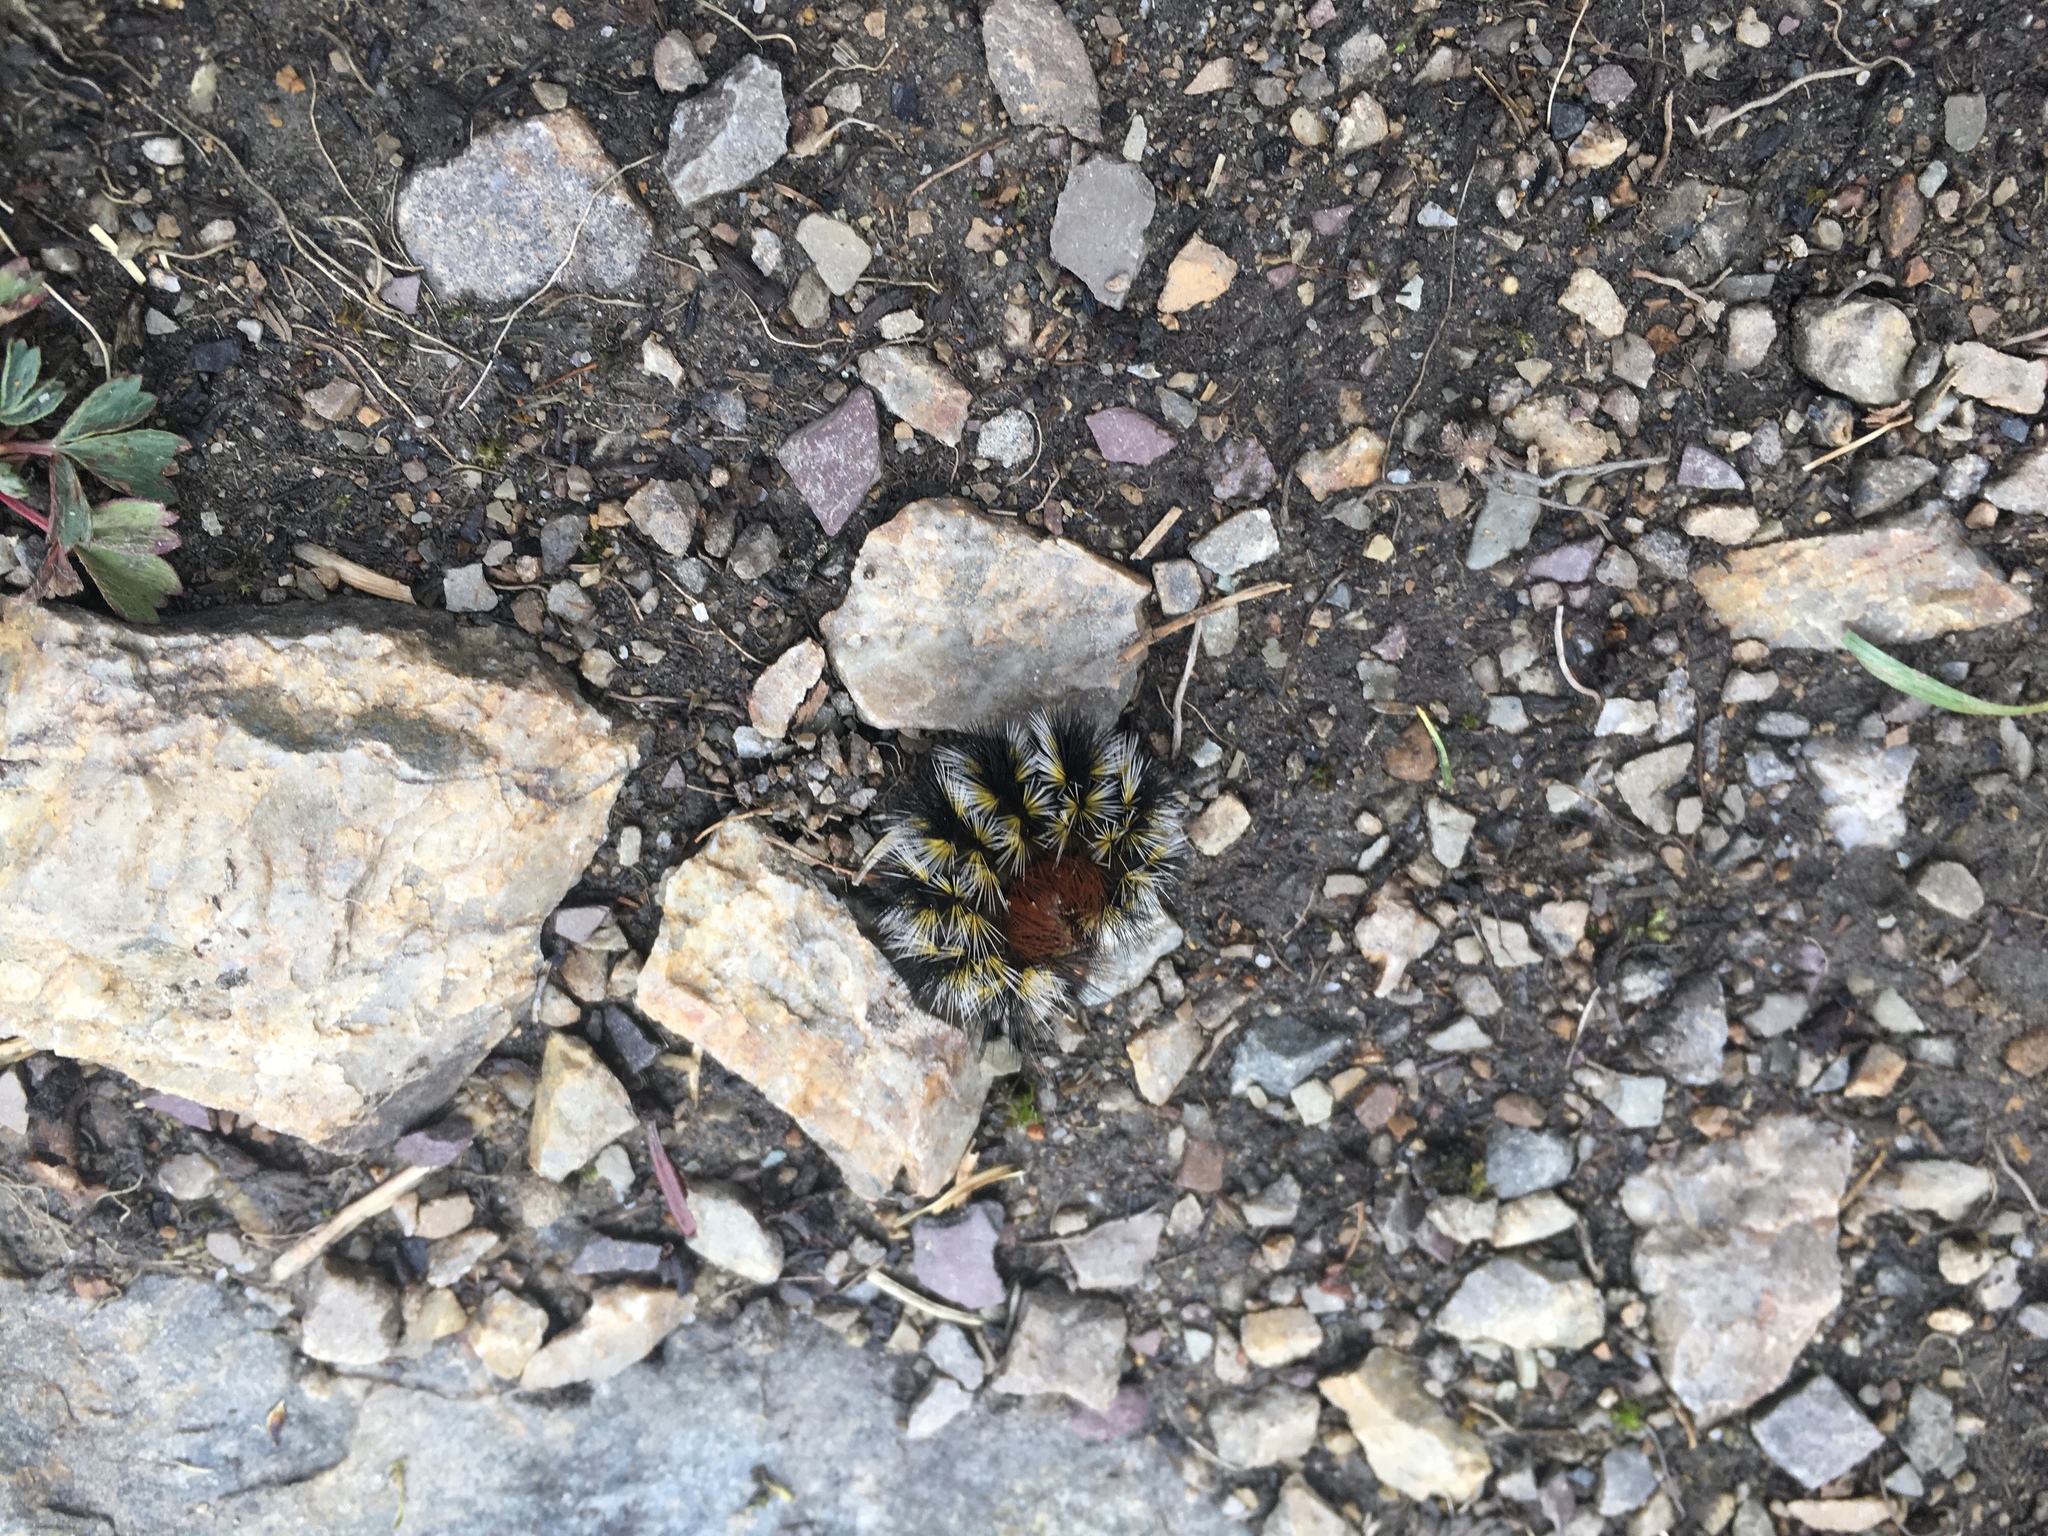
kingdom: Animalia
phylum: Arthropoda
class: Insecta
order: Lepidoptera
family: Erebidae
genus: Arctia
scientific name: Arctia
